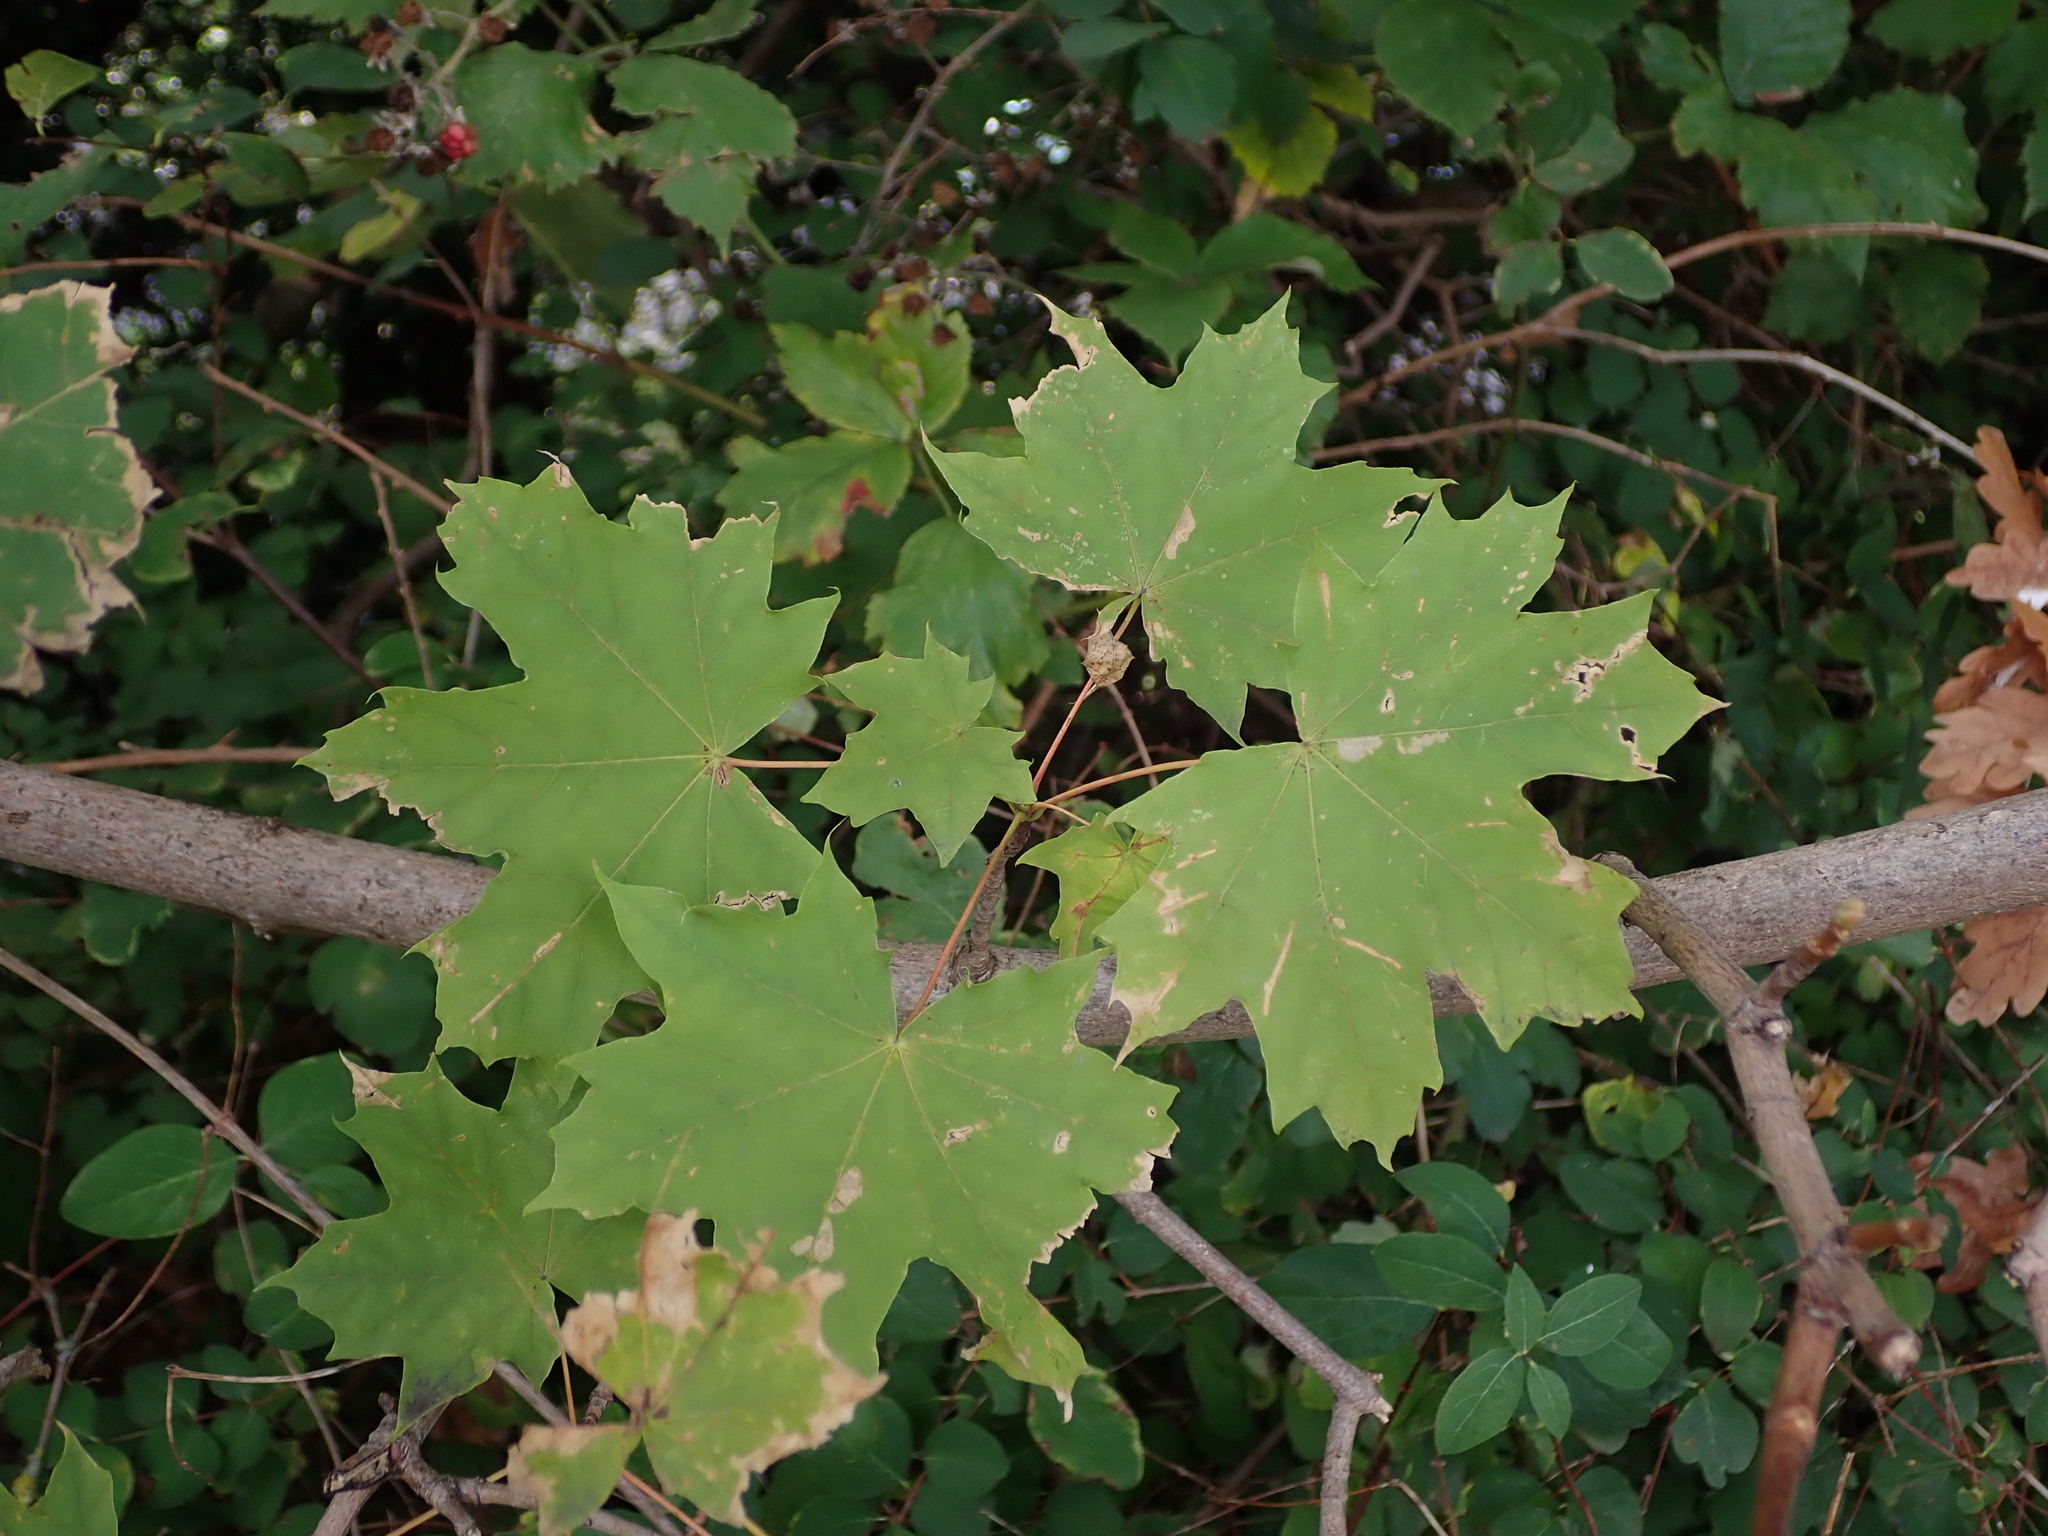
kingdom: Plantae
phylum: Tracheophyta
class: Magnoliopsida
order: Sapindales
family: Sapindaceae
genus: Acer
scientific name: Acer platanoides
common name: Norway maple
